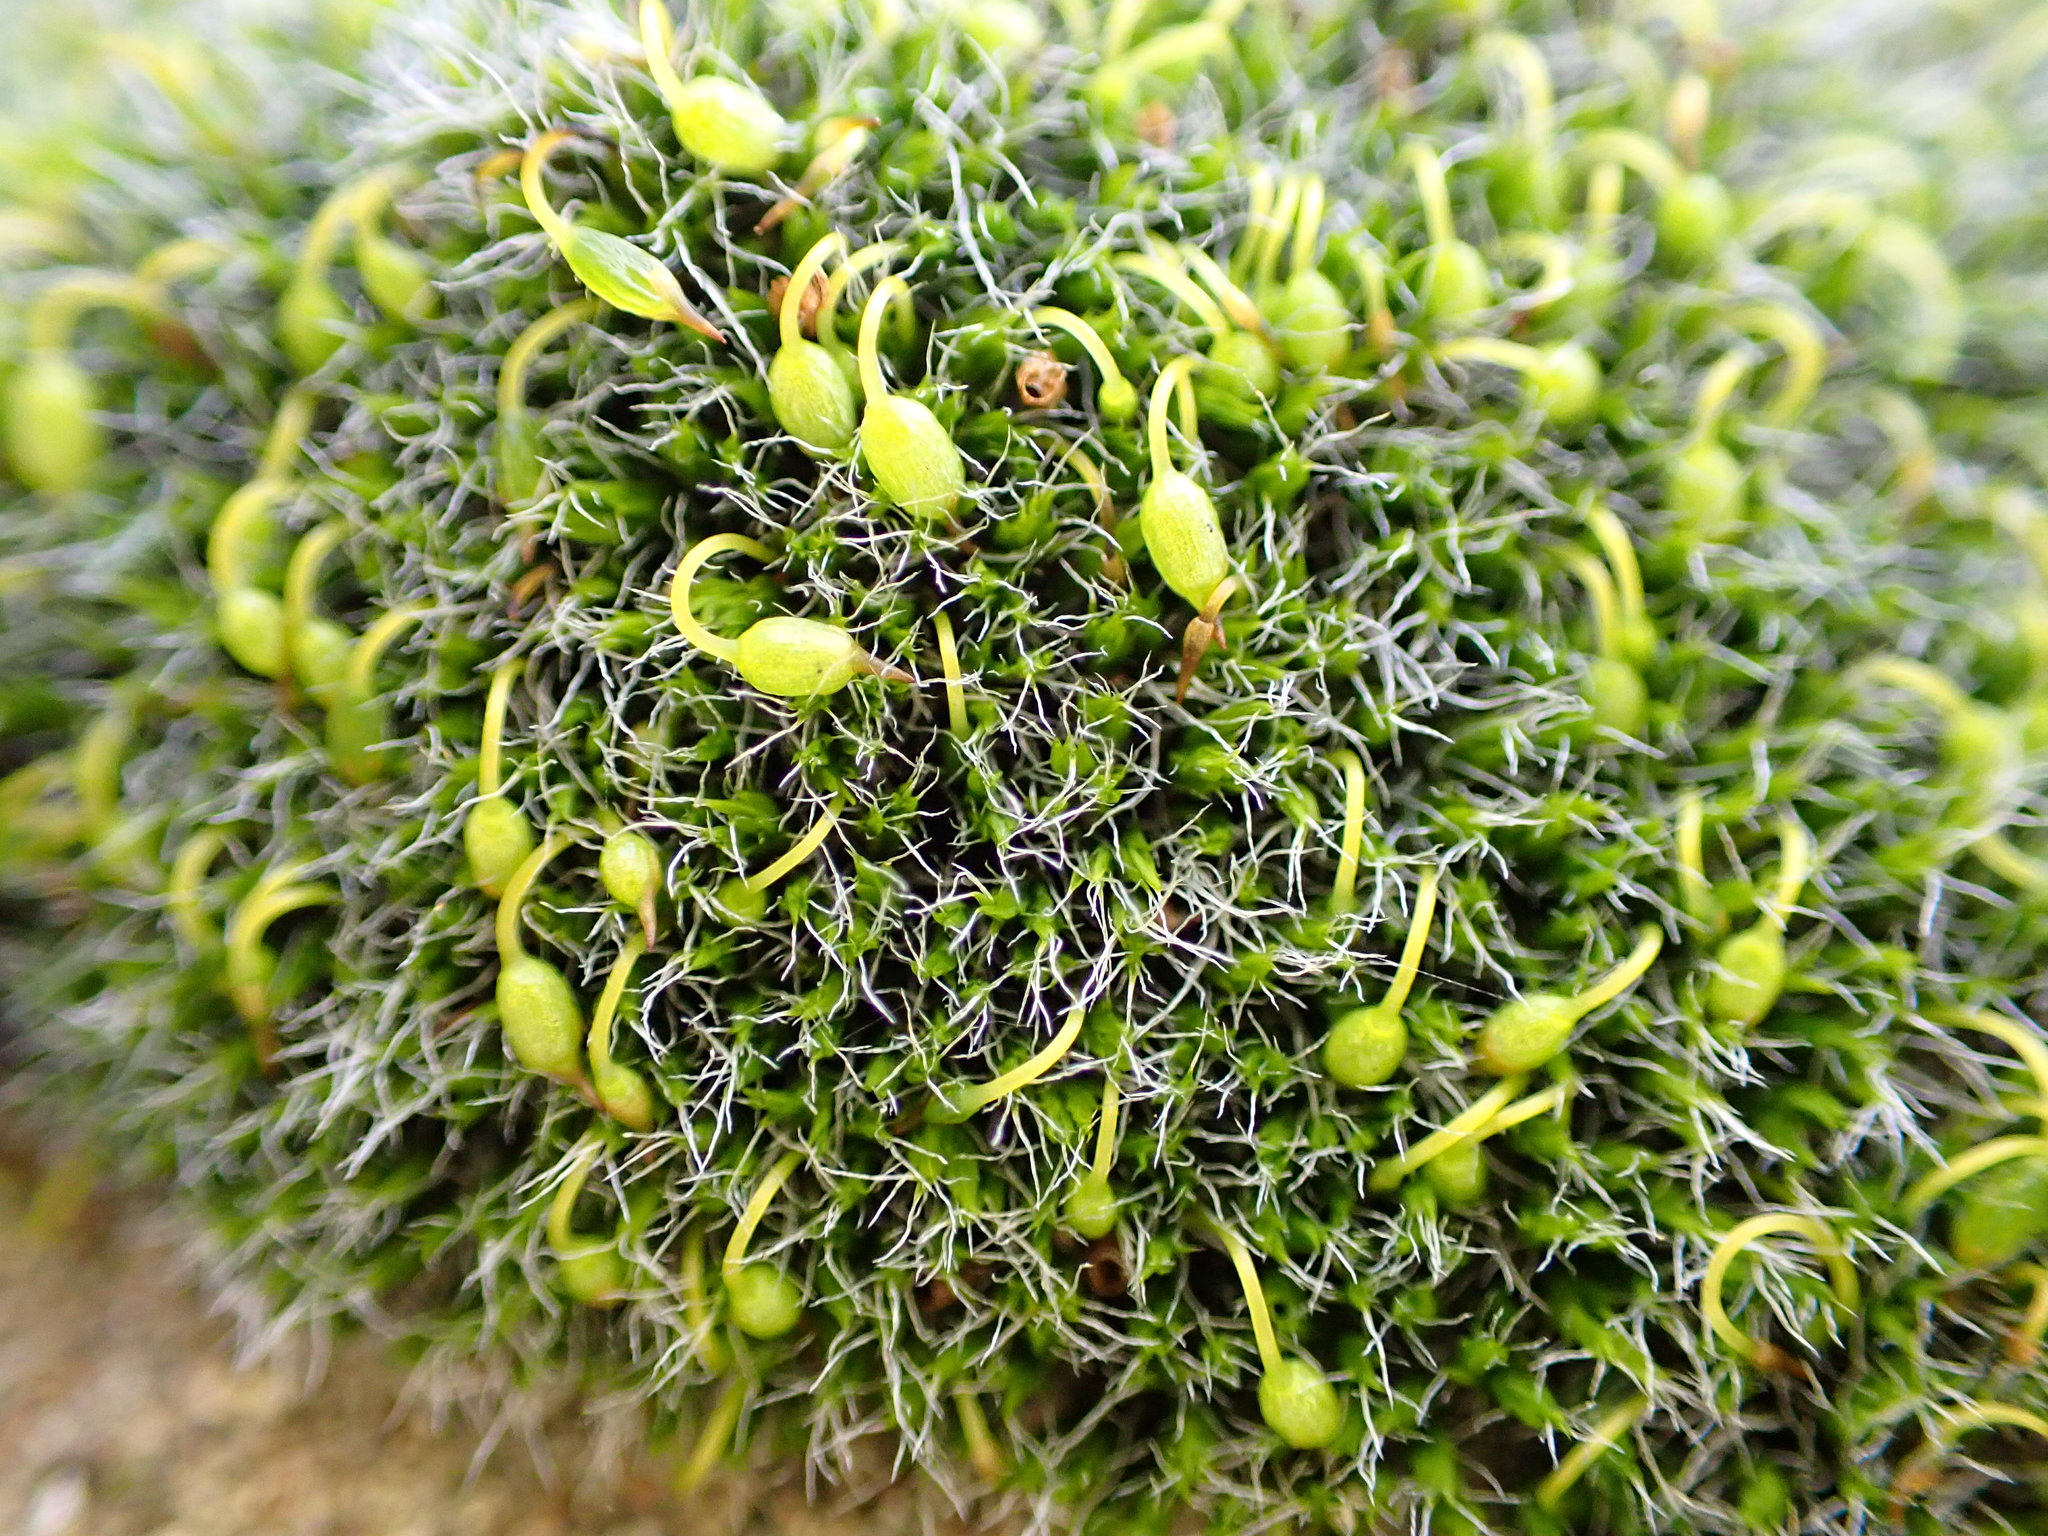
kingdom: Plantae
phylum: Bryophyta
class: Bryopsida
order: Grimmiales
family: Grimmiaceae
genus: Grimmia
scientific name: Grimmia pulvinata
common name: Grey-cushioned grimmia
